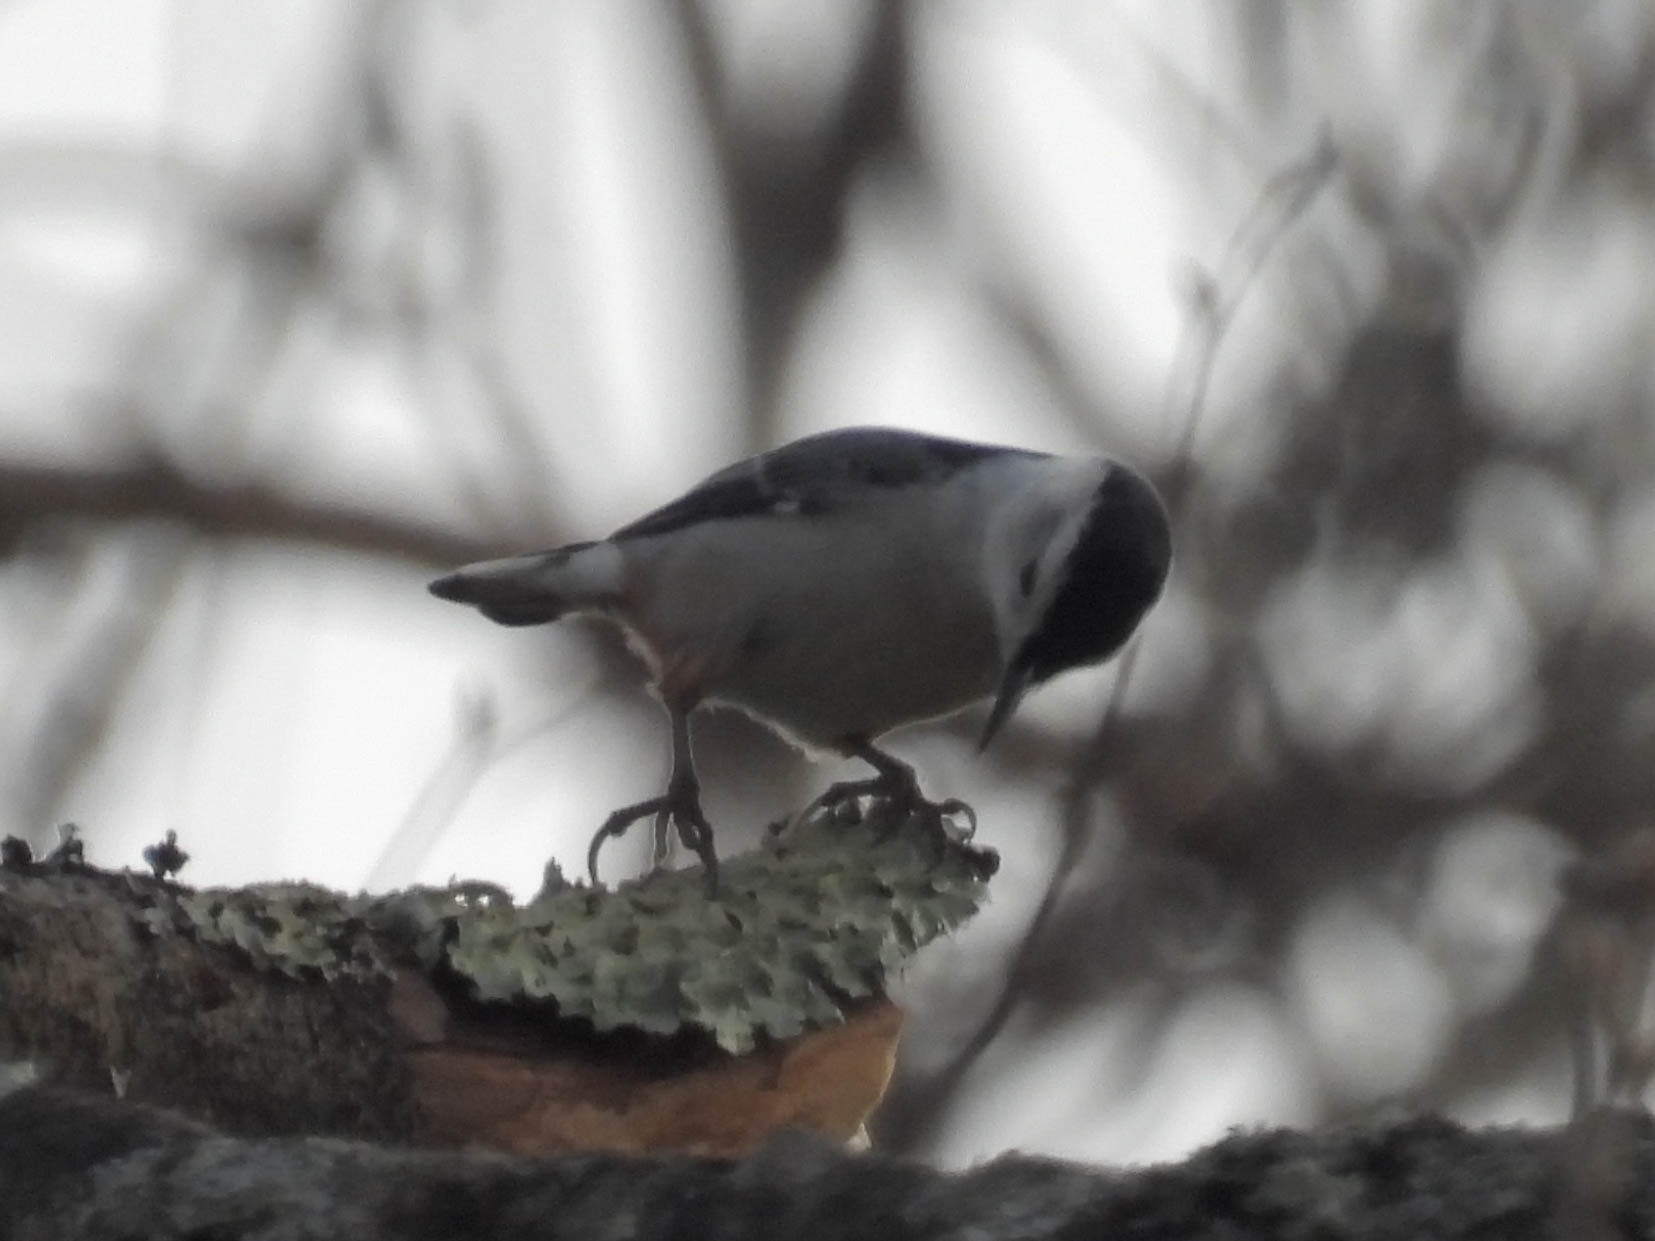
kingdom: Animalia
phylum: Chordata
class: Aves
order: Passeriformes
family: Sittidae
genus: Sitta
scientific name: Sitta carolinensis
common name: White-breasted nuthatch
